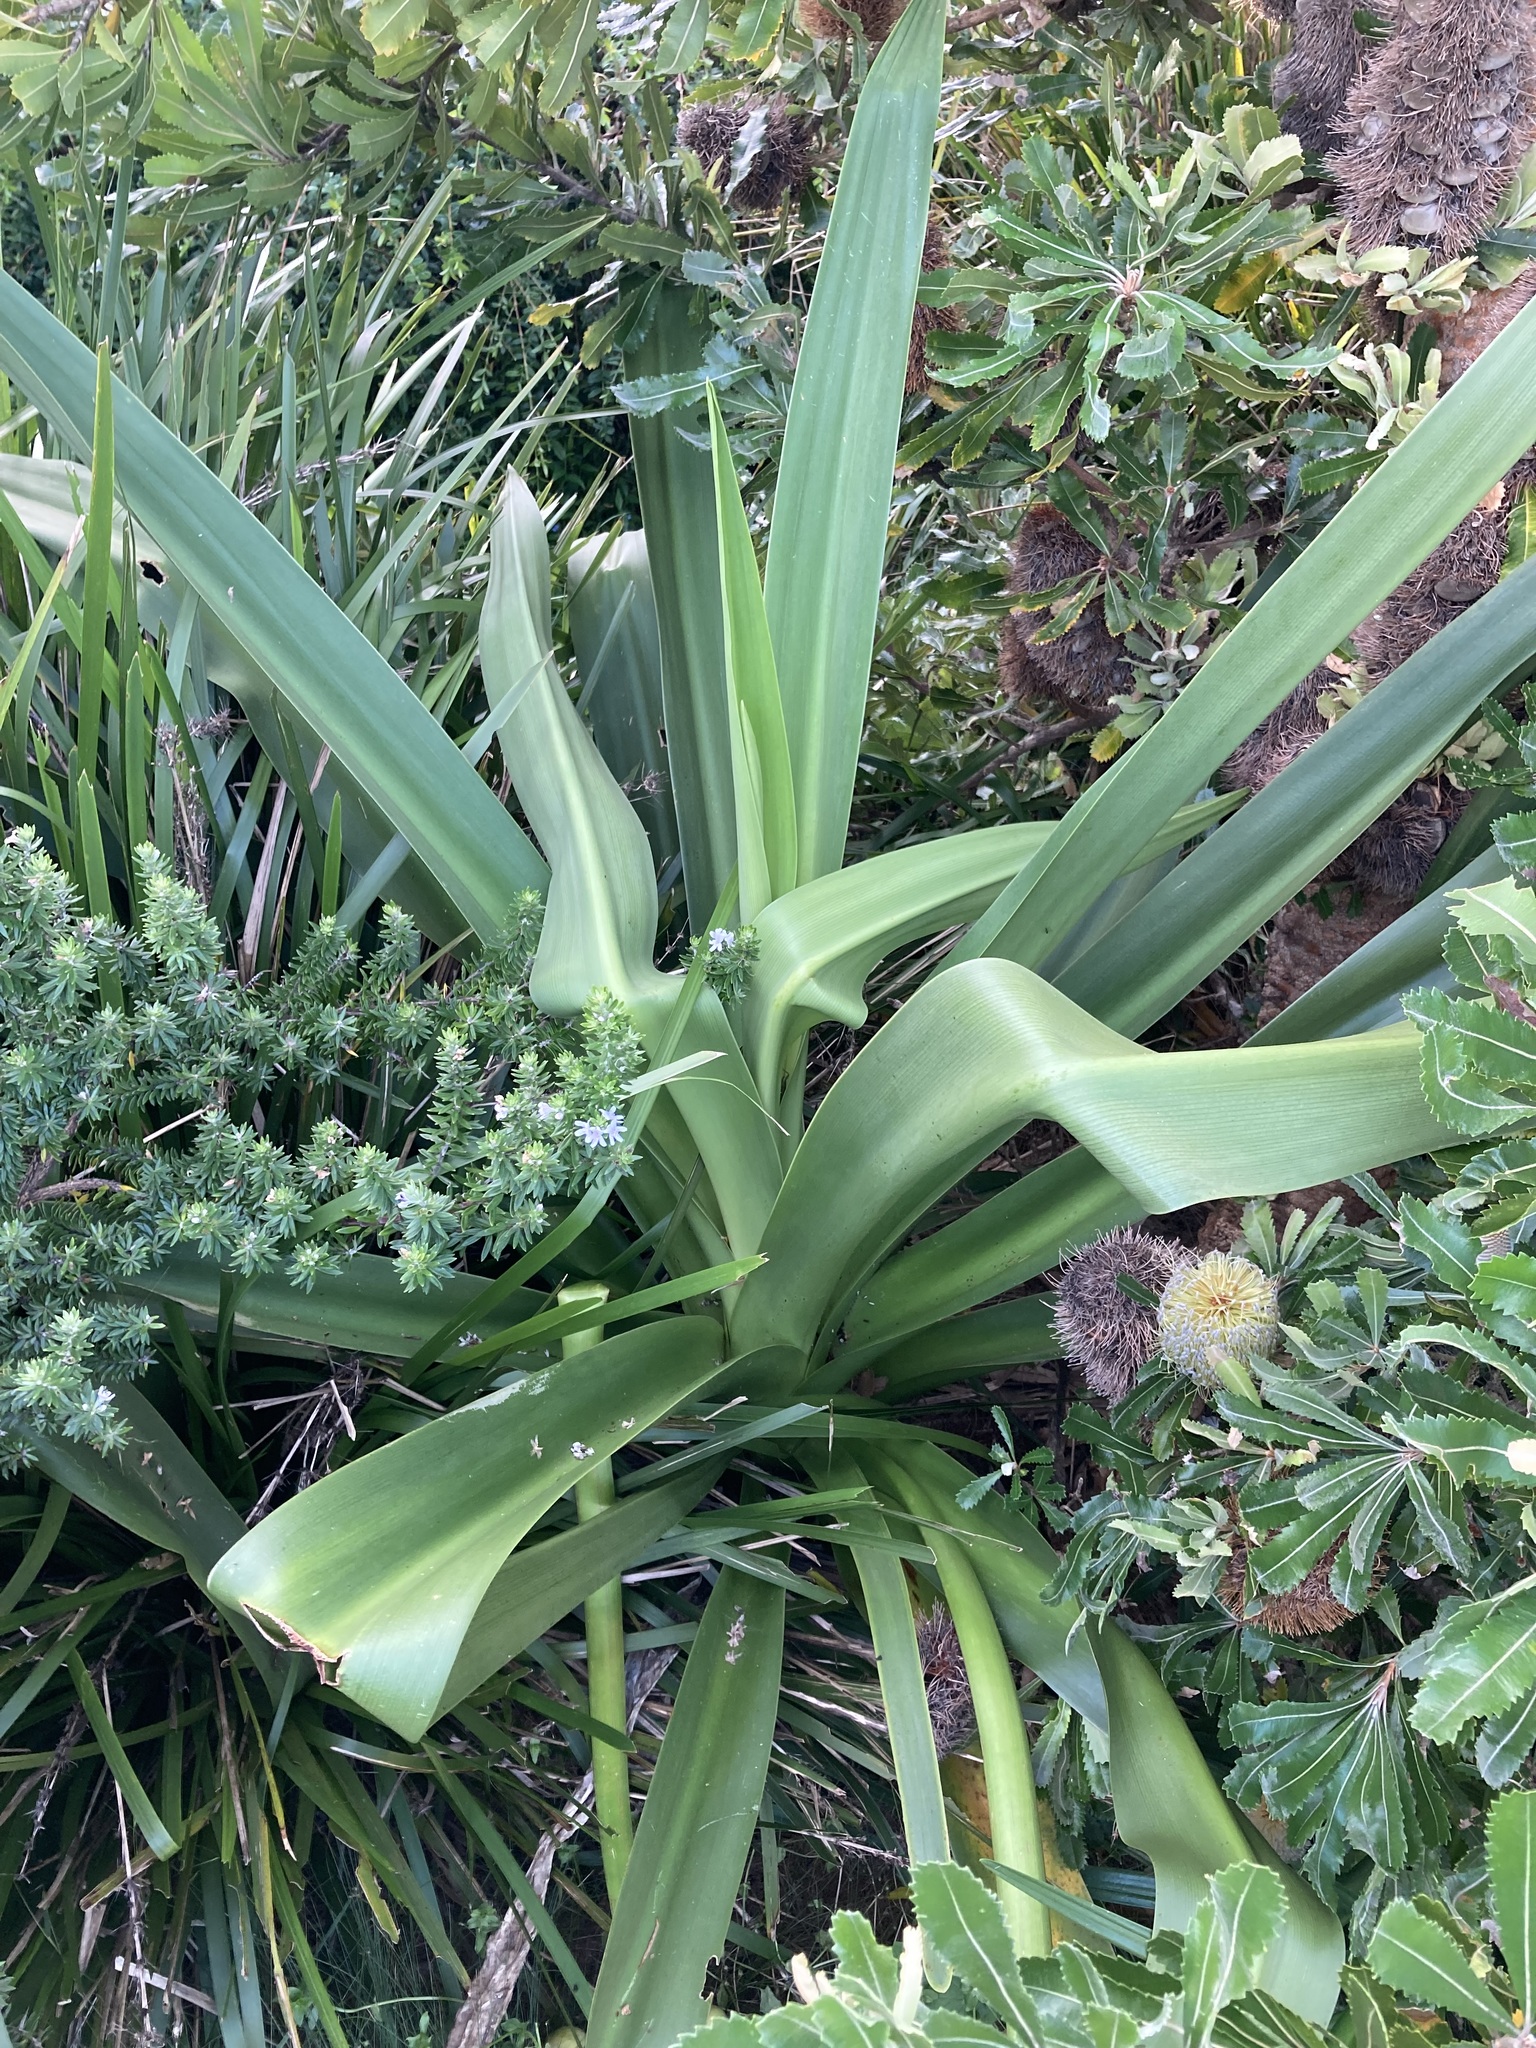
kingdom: Plantae
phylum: Tracheophyta
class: Liliopsida
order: Asparagales
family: Amaryllidaceae
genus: Crinum
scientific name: Crinum pedunculatum
